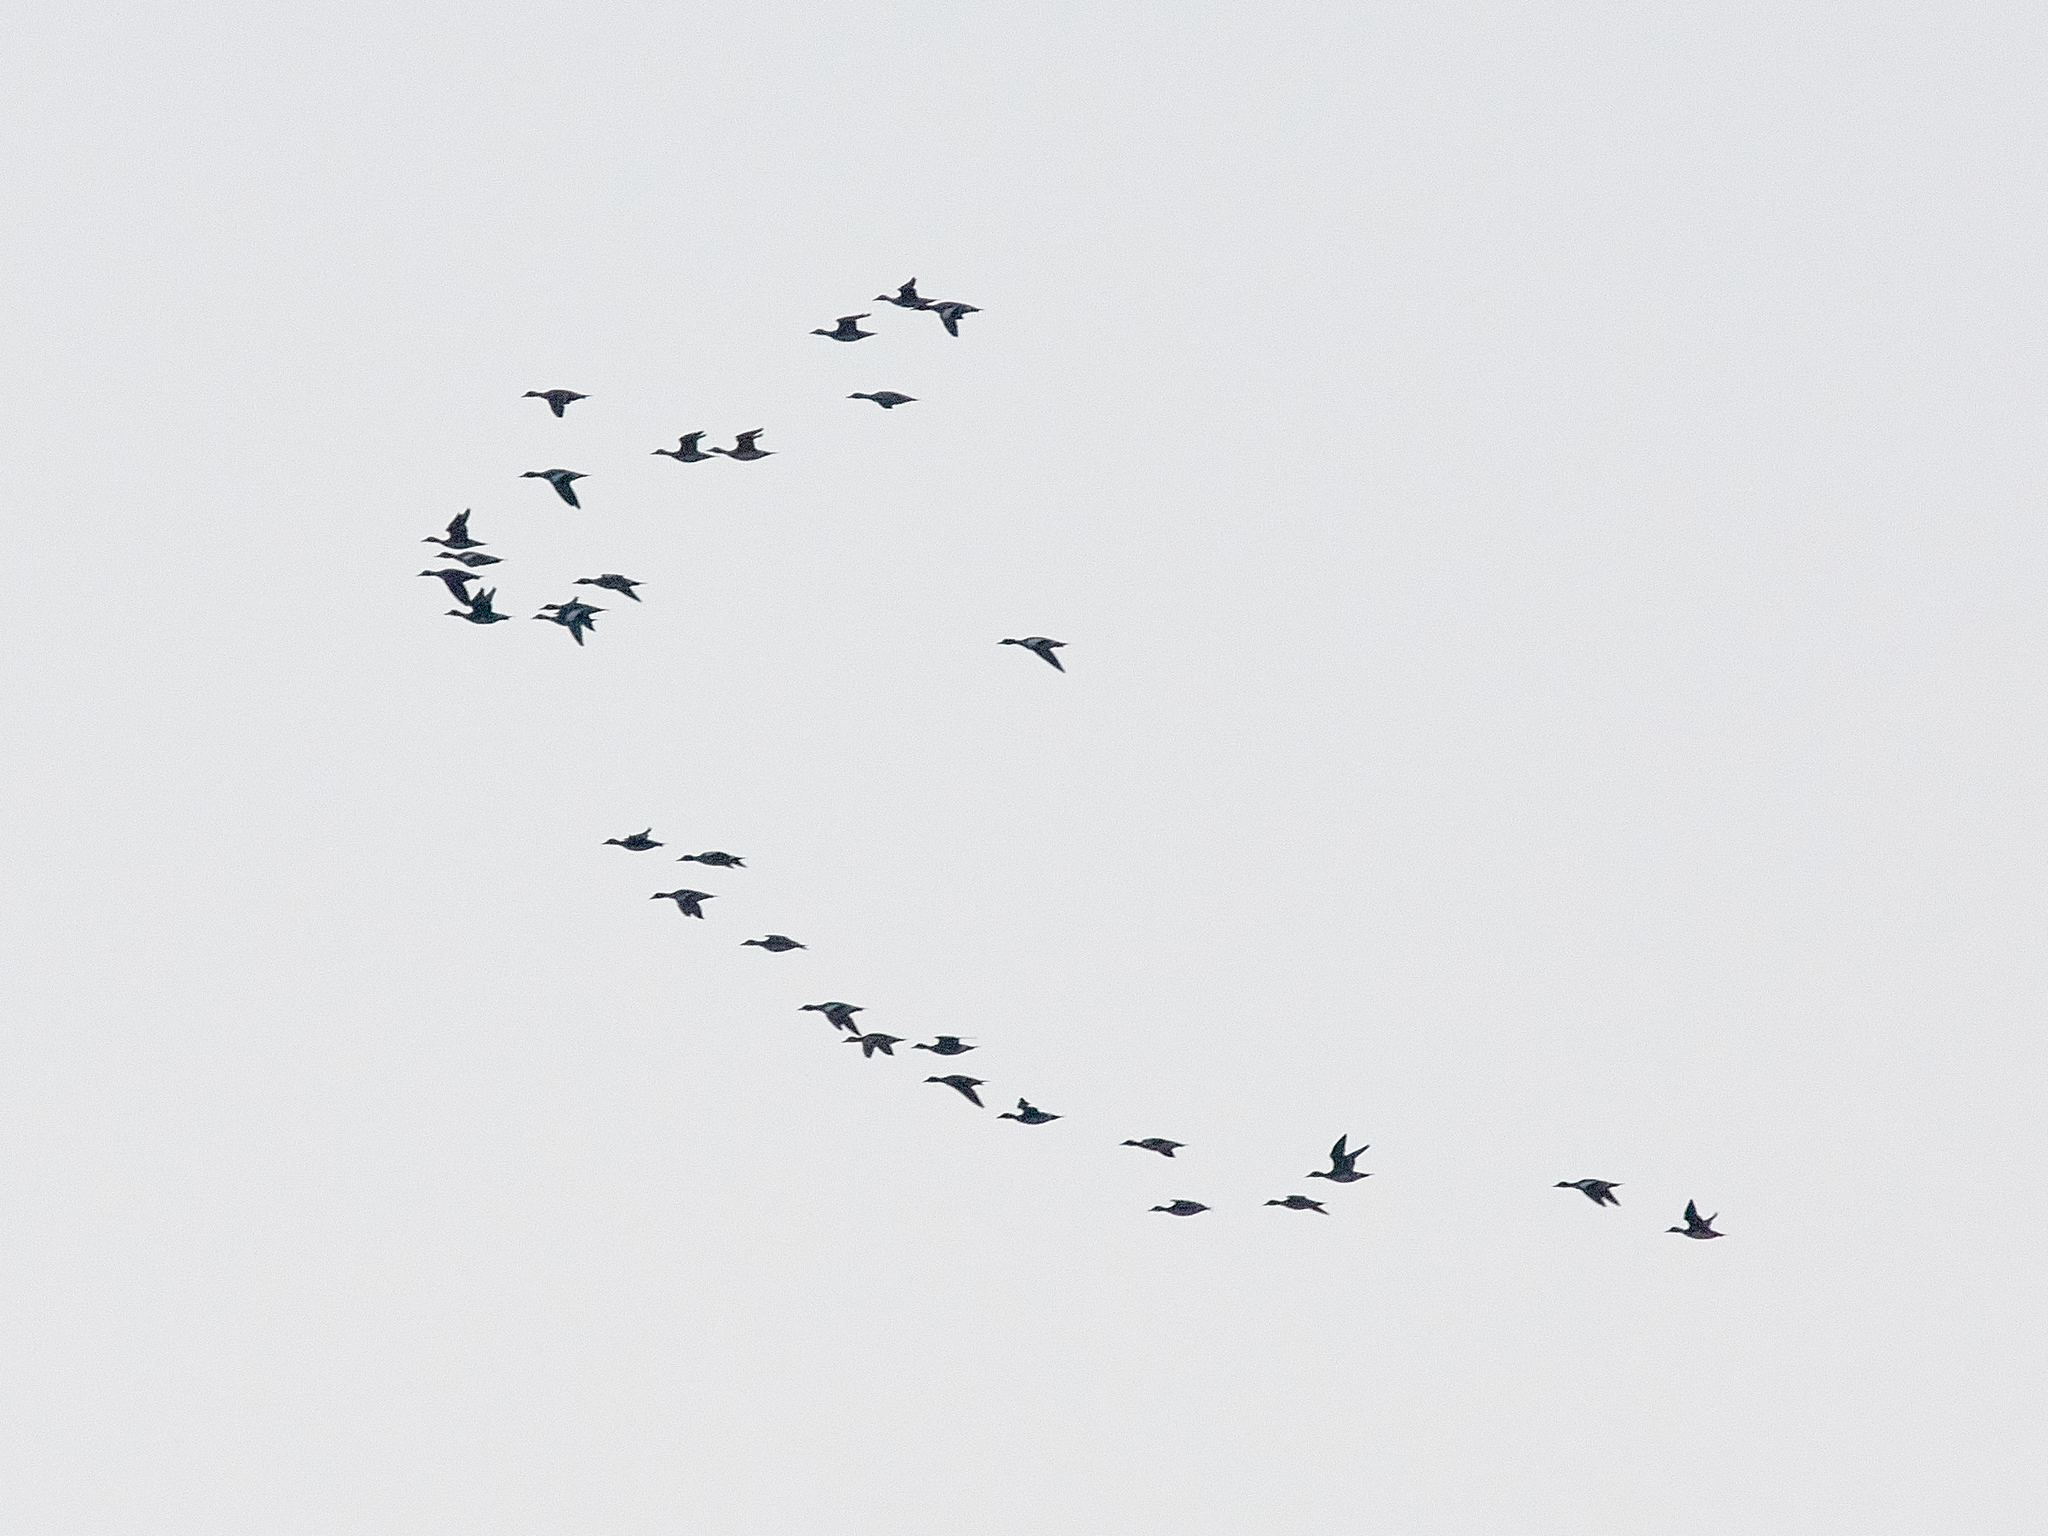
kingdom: Animalia
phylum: Chordata
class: Aves
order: Anseriformes
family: Anatidae
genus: Mareca
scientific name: Mareca penelope
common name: Eurasian wigeon
